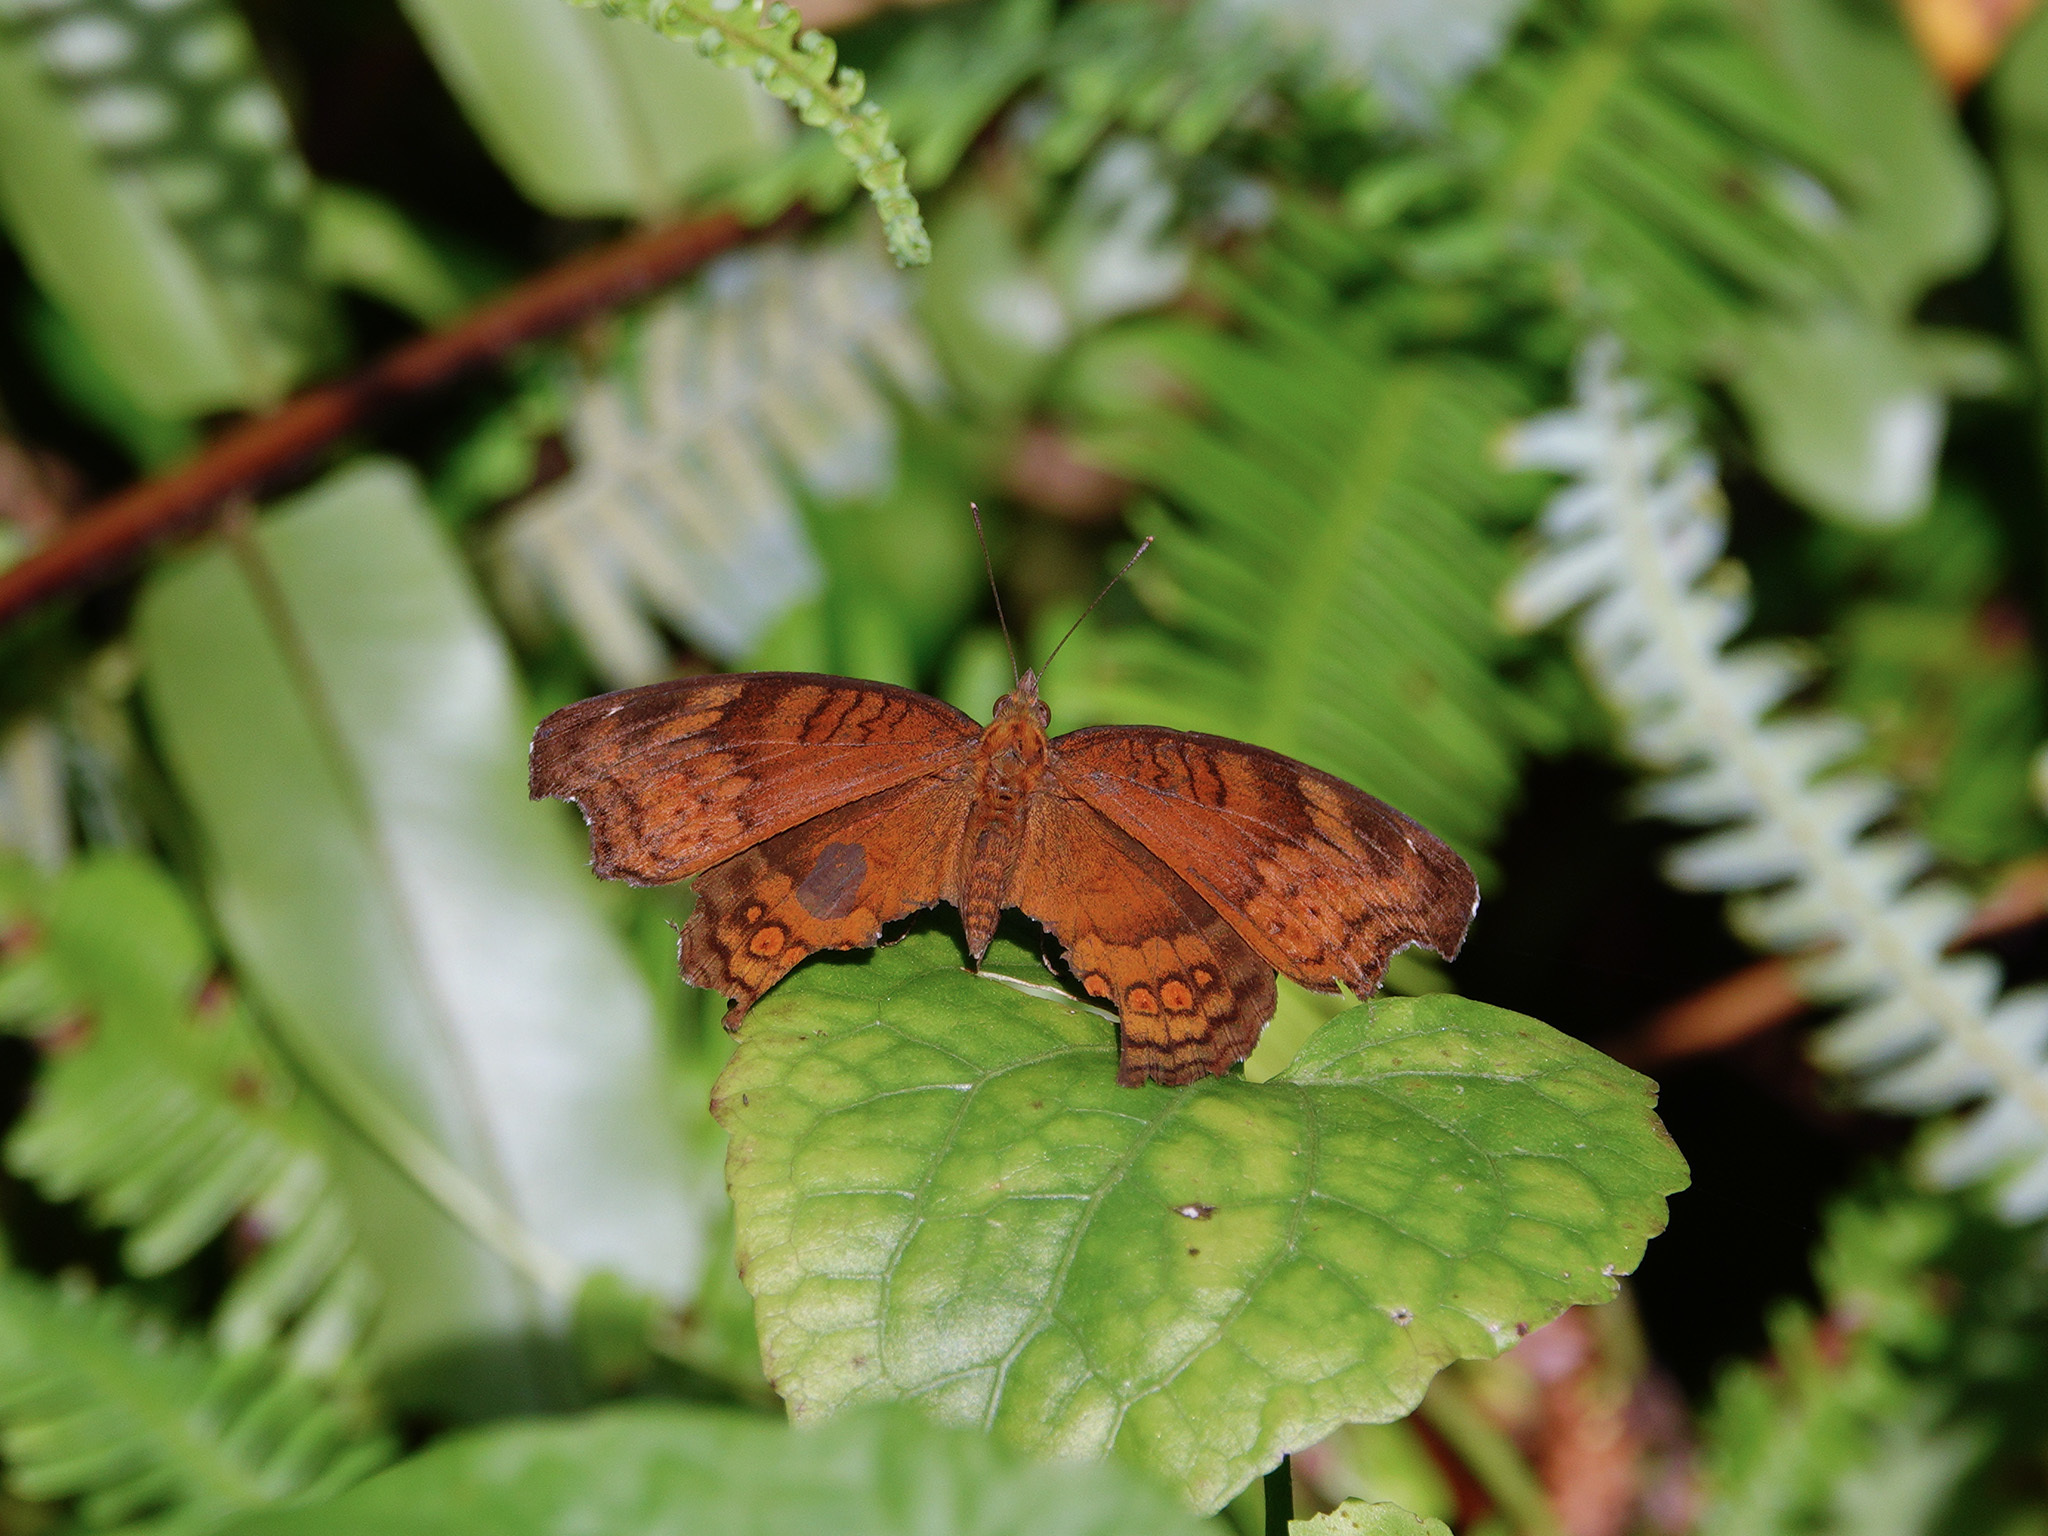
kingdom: Animalia
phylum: Arthropoda
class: Insecta
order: Lepidoptera
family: Nymphalidae
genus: Junonia
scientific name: Junonia hedonia
